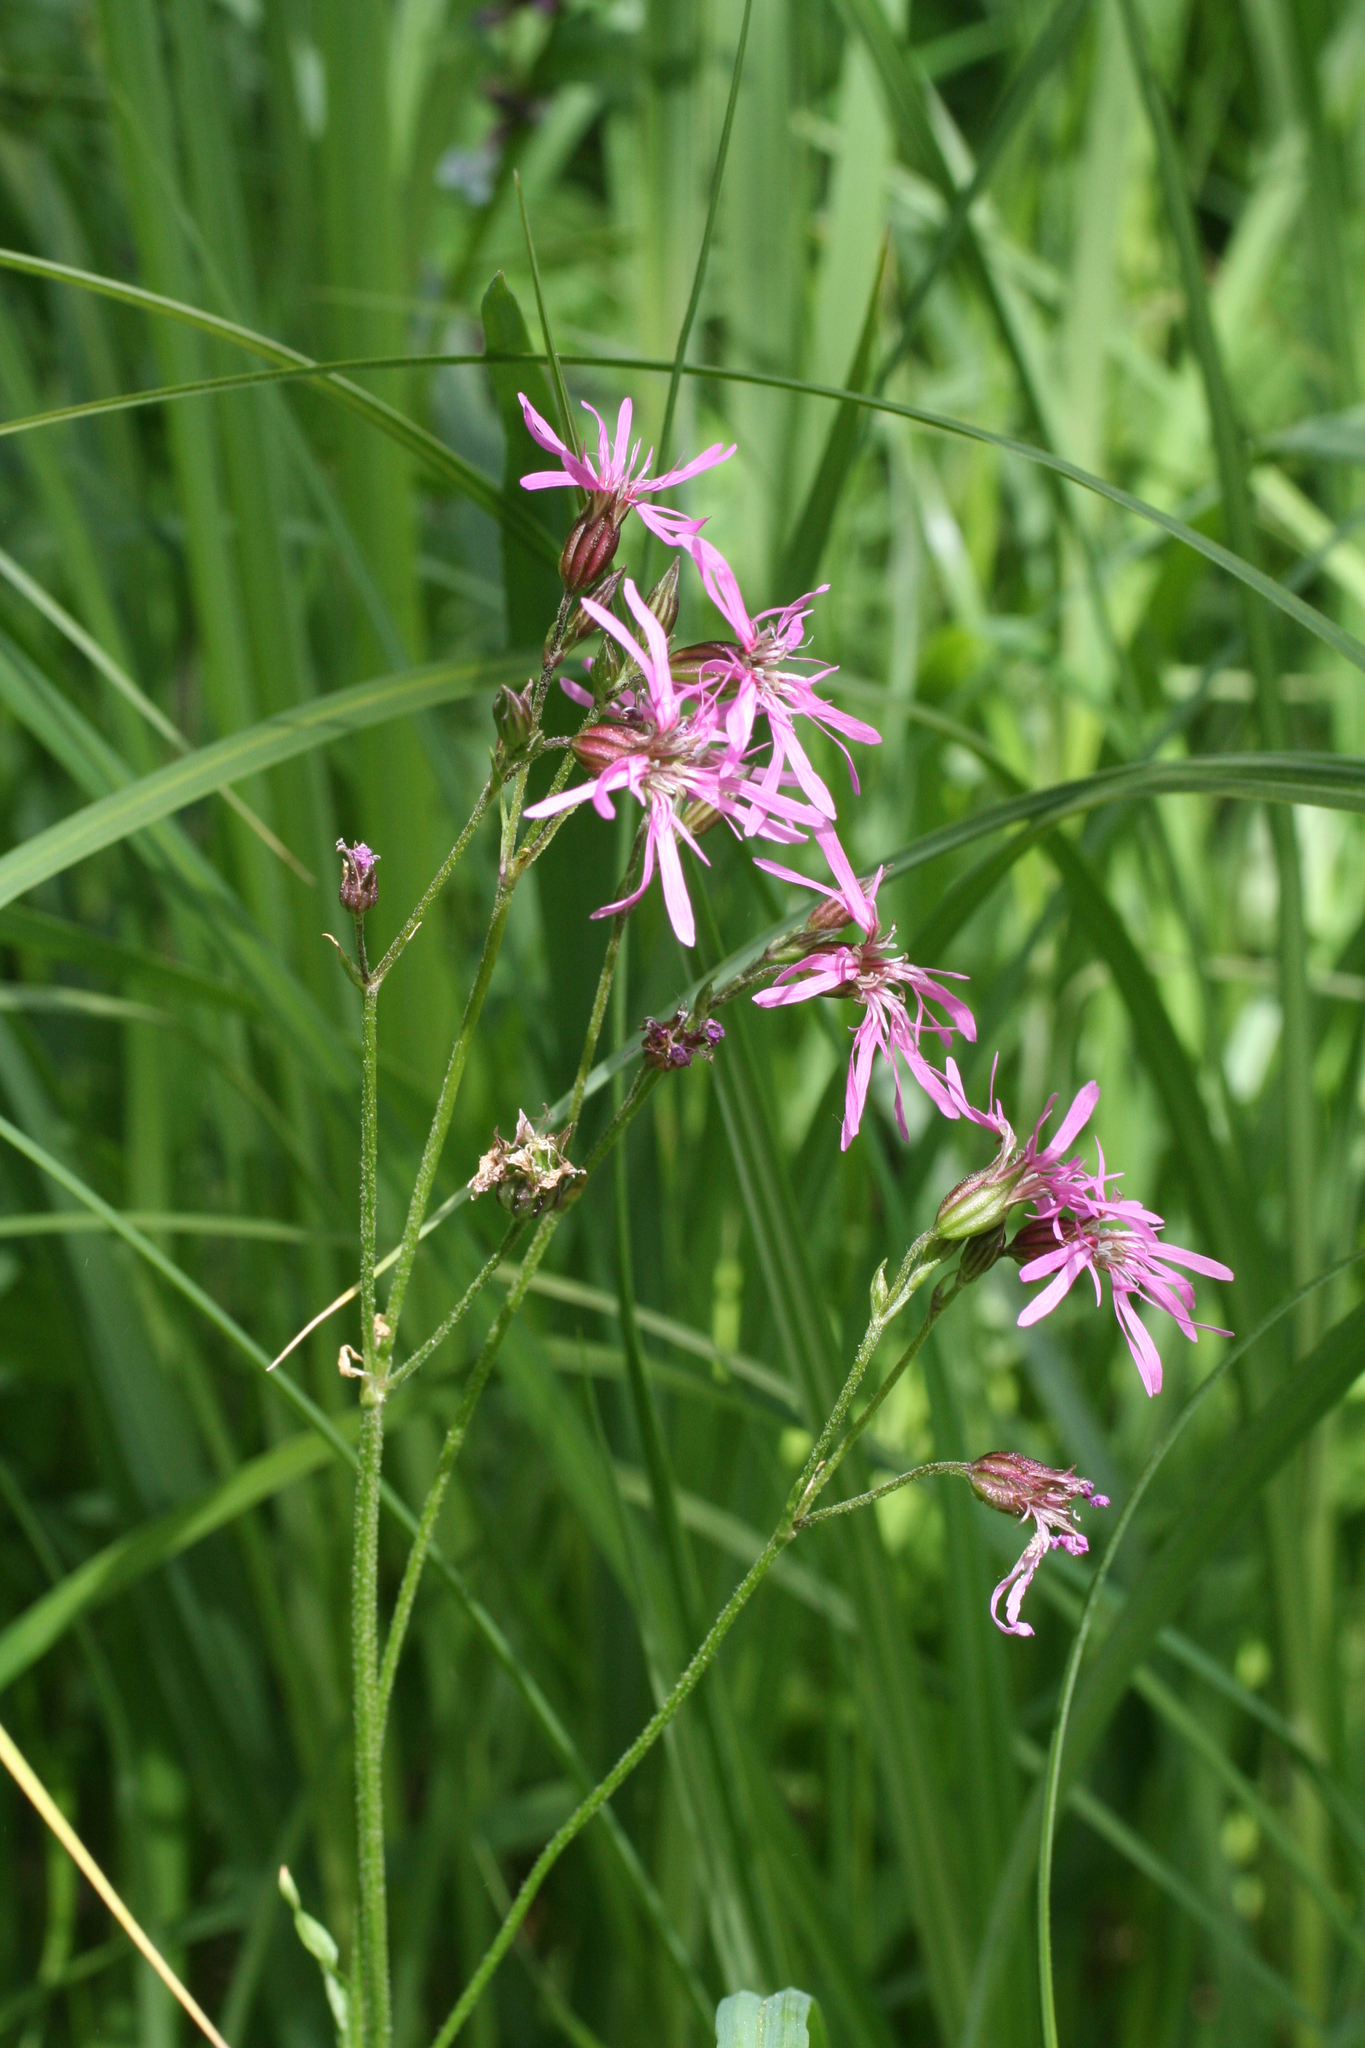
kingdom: Plantae
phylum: Tracheophyta
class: Magnoliopsida
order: Caryophyllales
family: Caryophyllaceae
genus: Silene
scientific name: Silene flos-cuculi
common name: Ragged-robin
